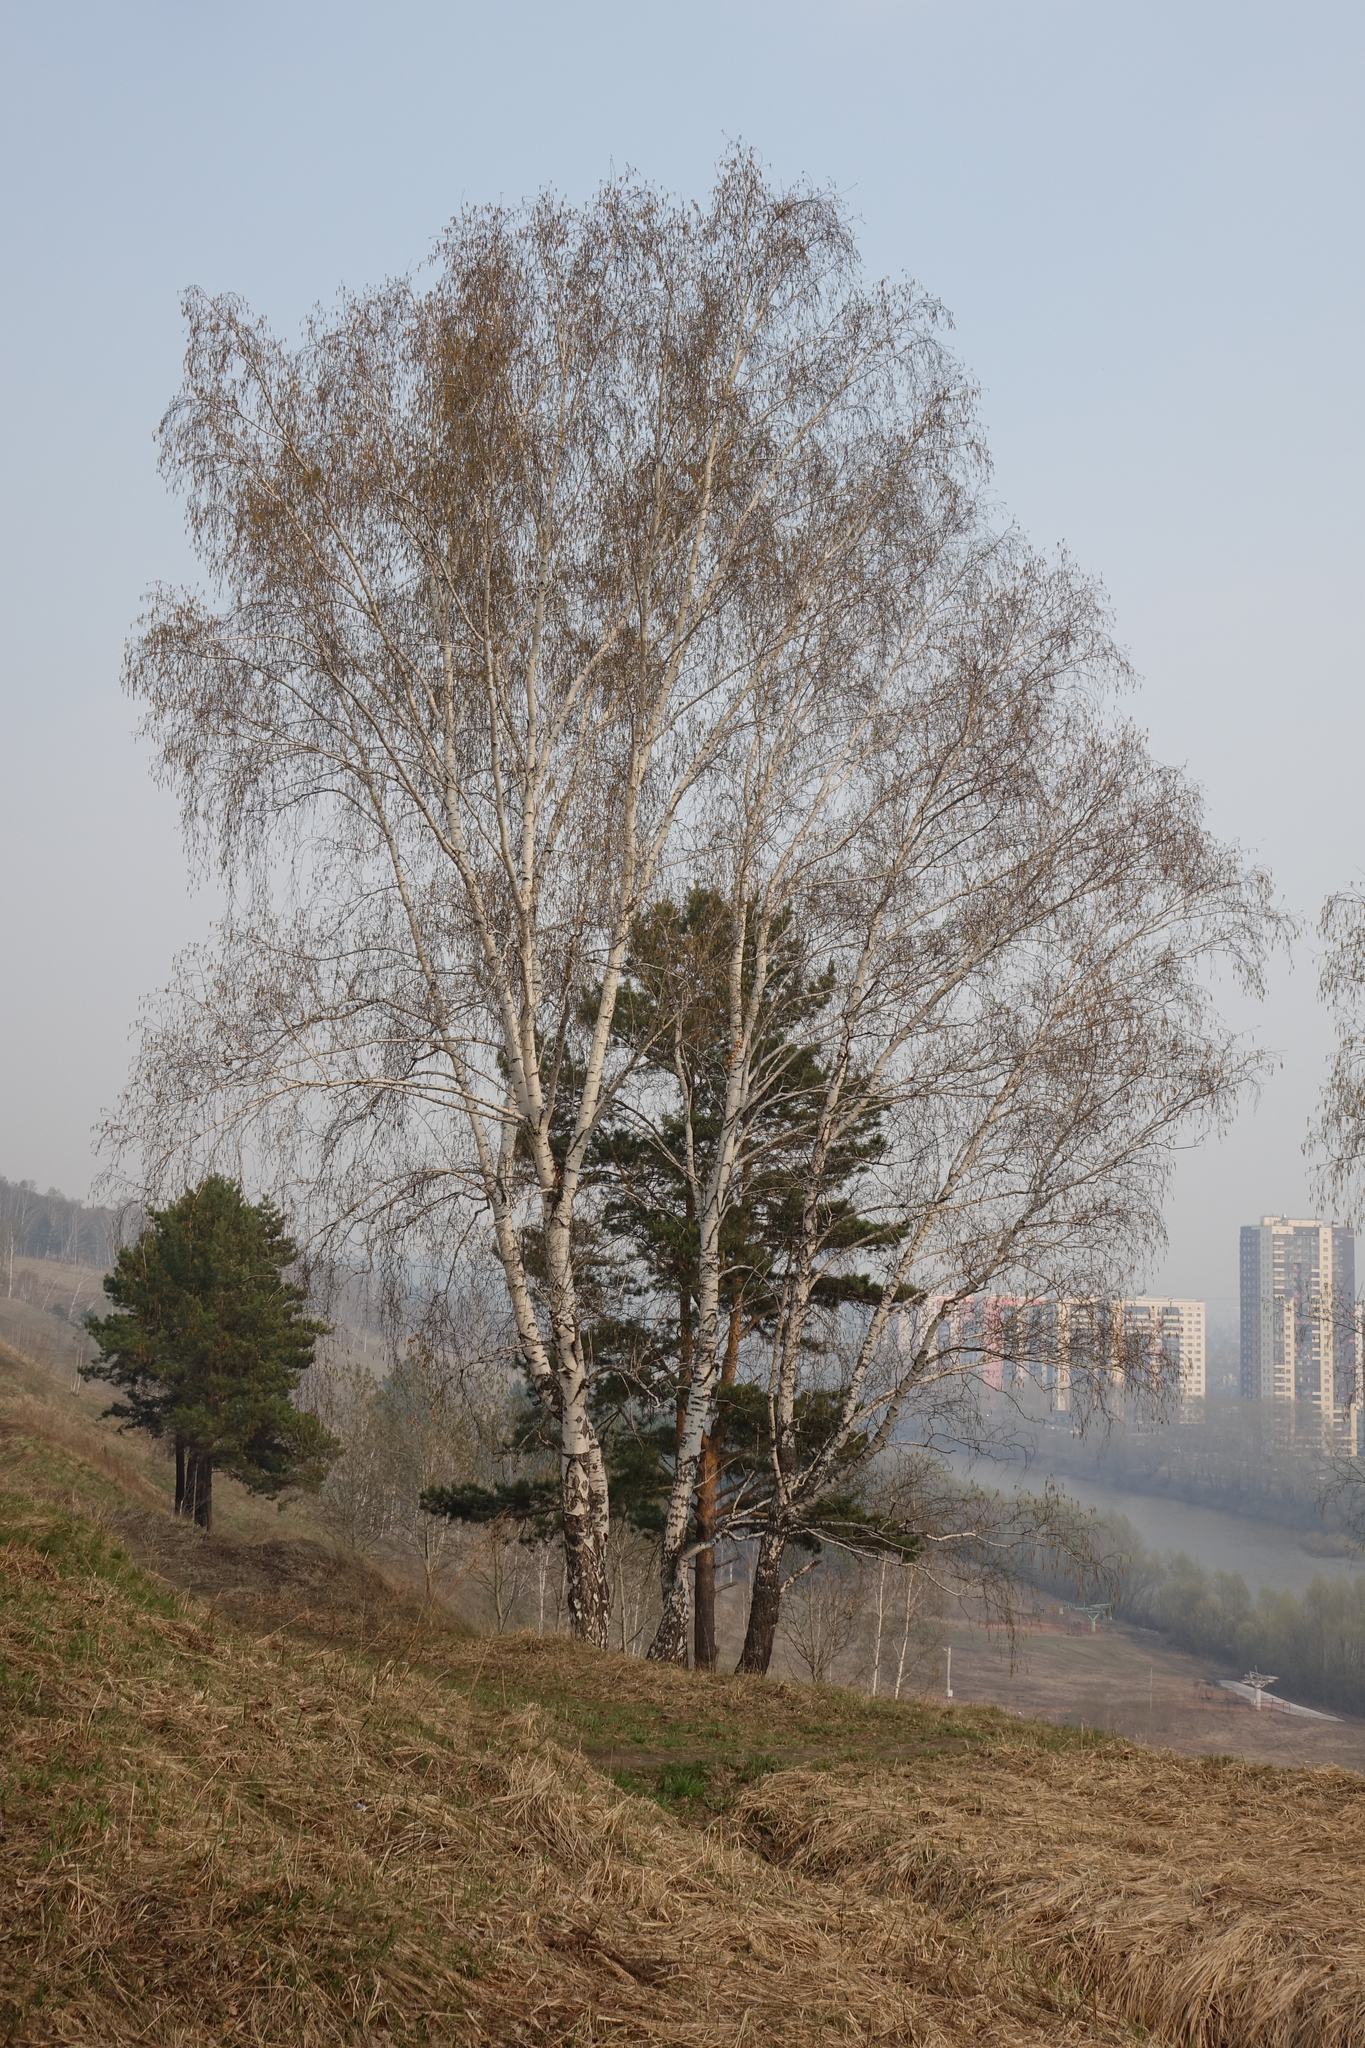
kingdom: Plantae
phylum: Tracheophyta
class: Pinopsida
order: Pinales
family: Pinaceae
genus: Pinus
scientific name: Pinus sylvestris
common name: Scots pine
